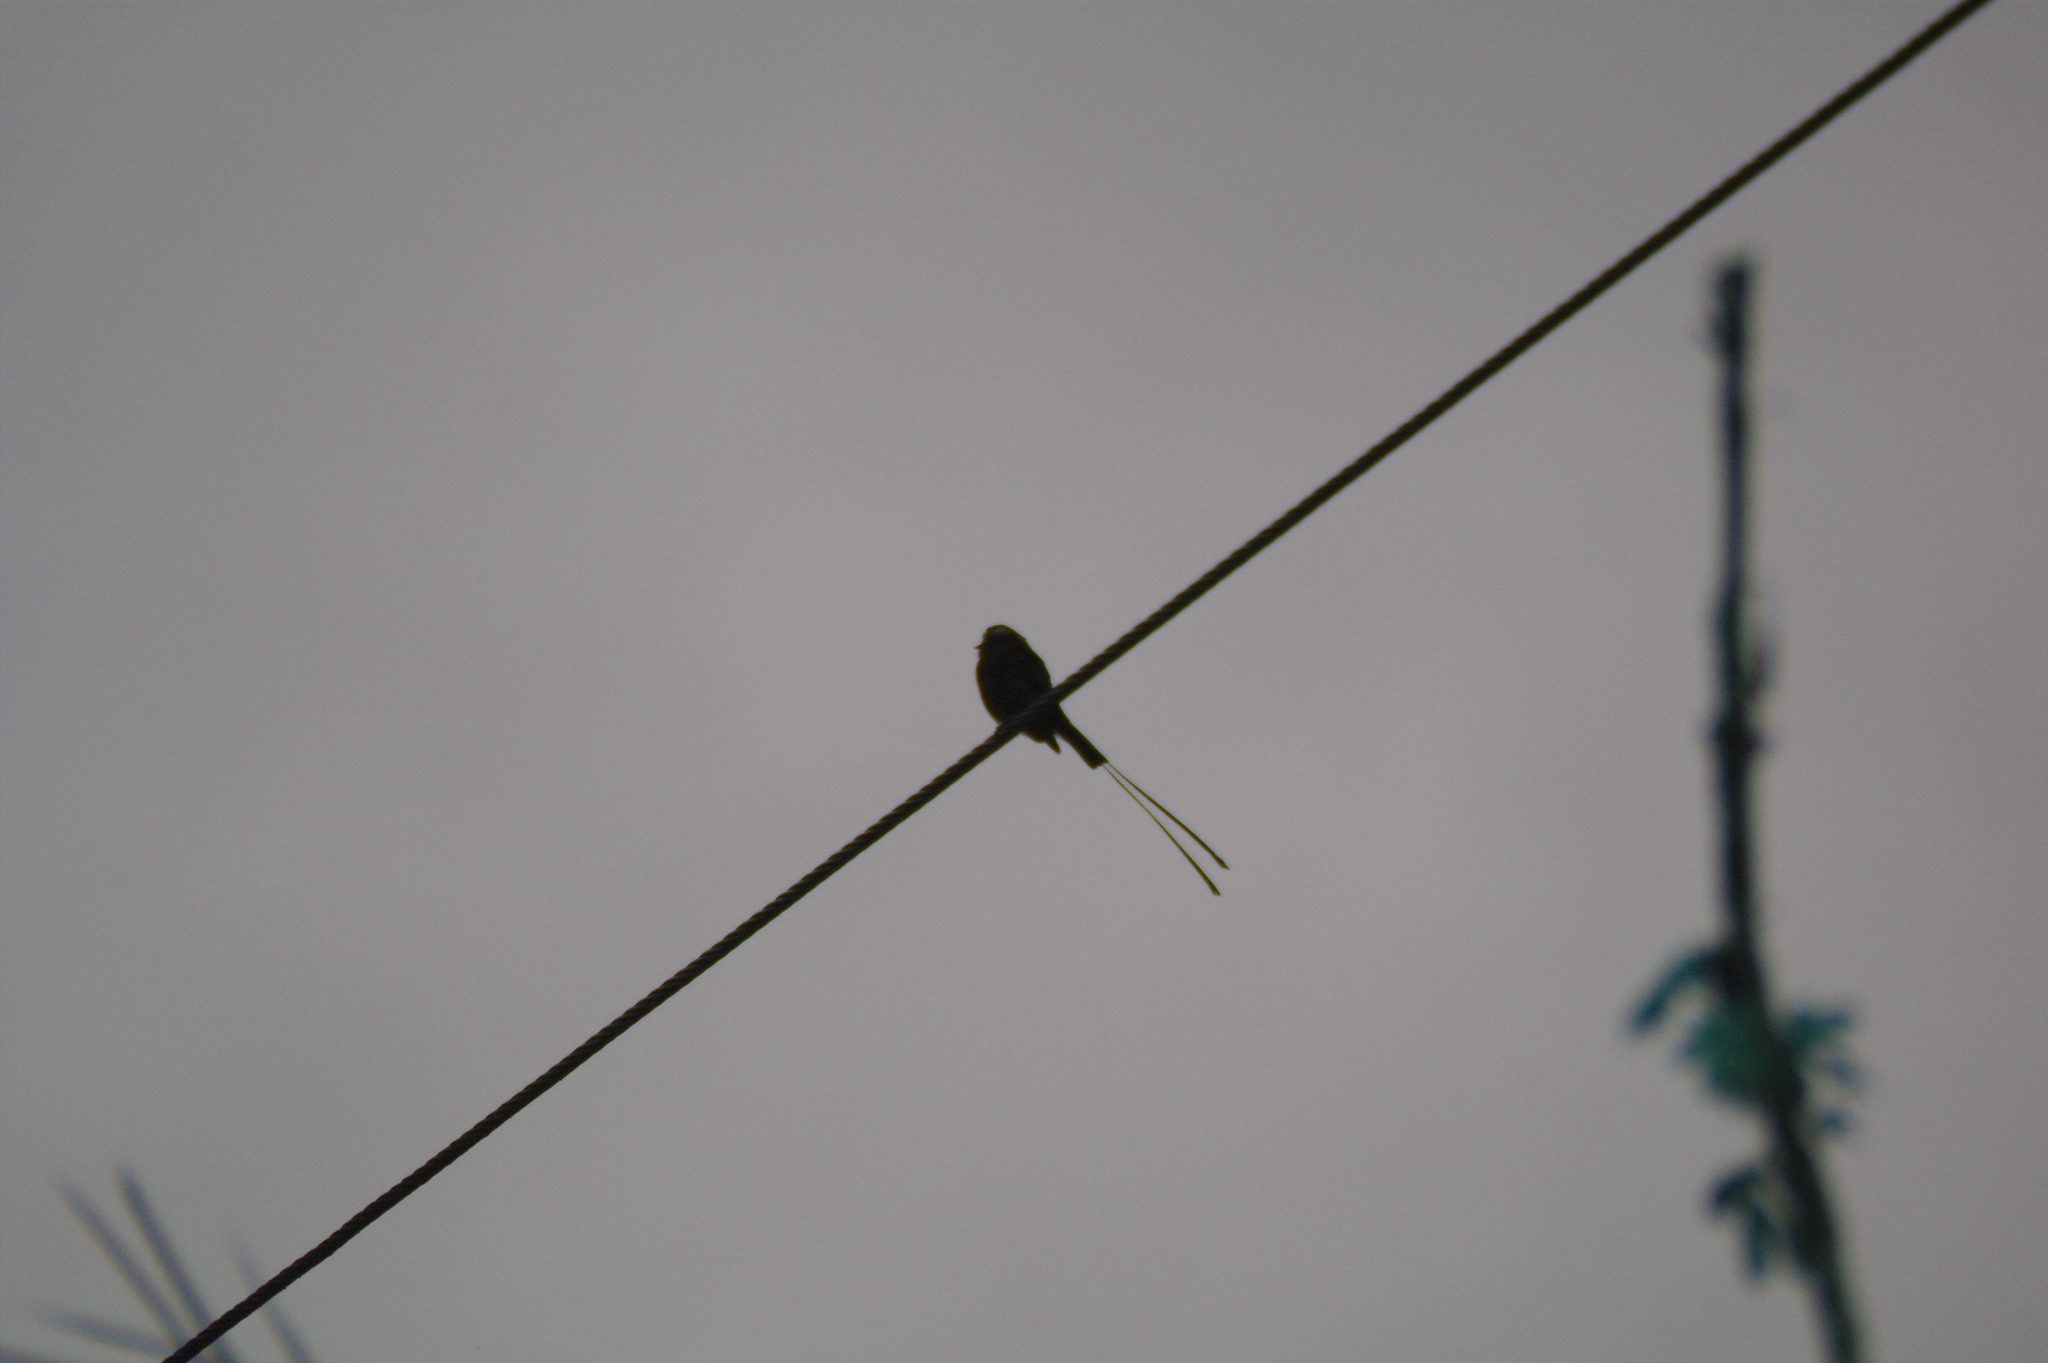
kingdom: Animalia
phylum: Chordata
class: Aves
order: Passeriformes
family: Tyrannidae
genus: Colonia
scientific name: Colonia colonus
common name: Long-tailed tyrant
